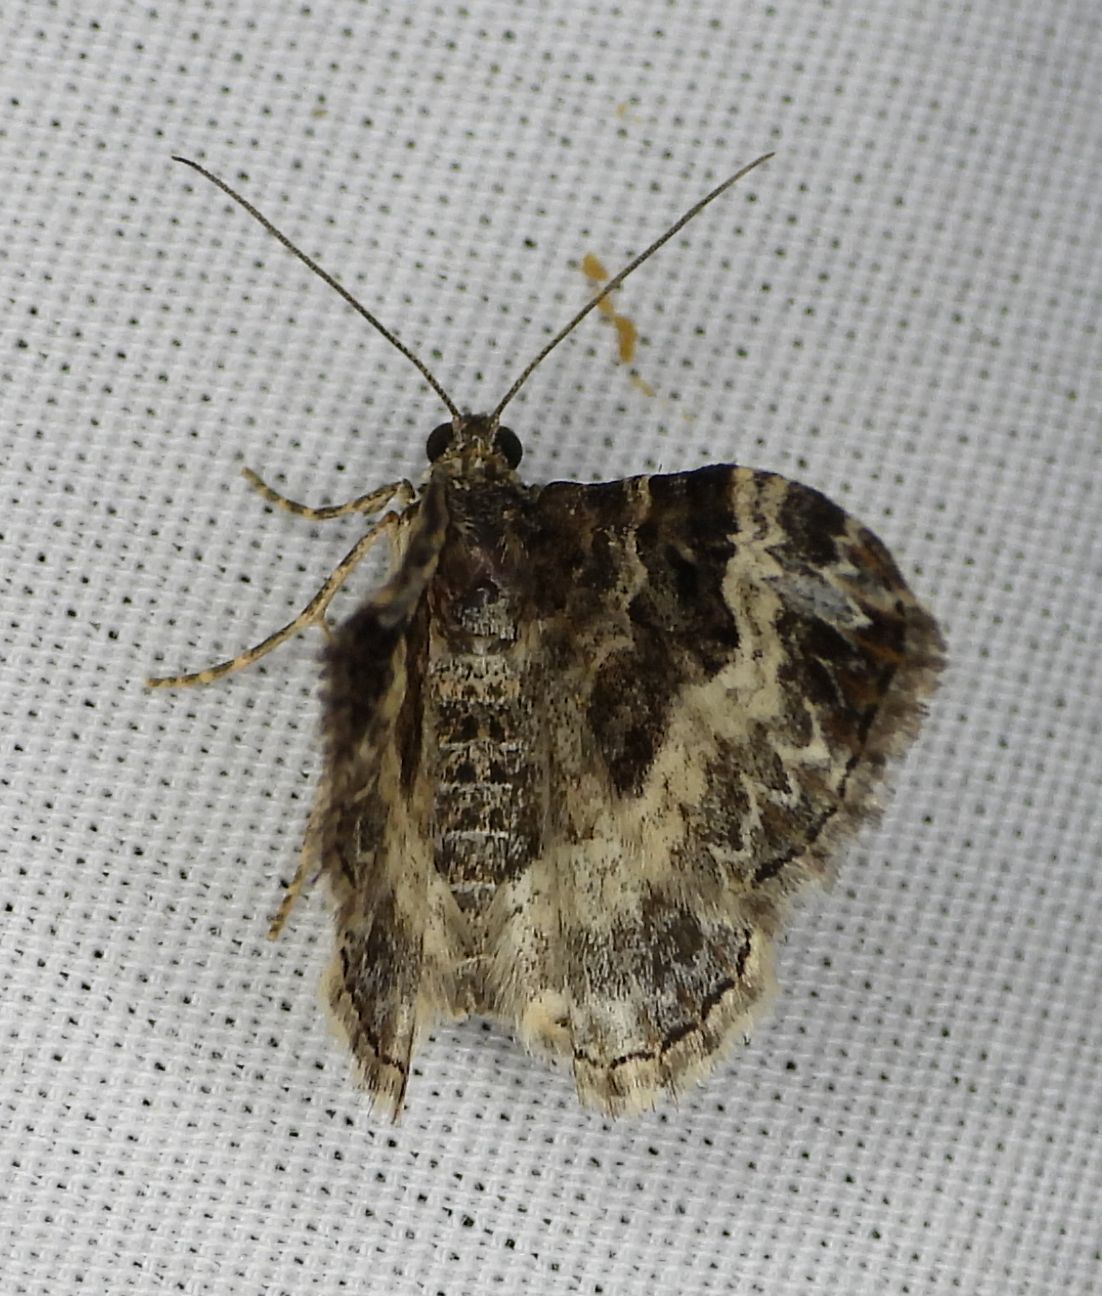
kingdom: Animalia
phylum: Arthropoda
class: Insecta
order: Lepidoptera
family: Geometridae
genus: Epirrhoe
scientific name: Epirrhoe alternata
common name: Common carpet
